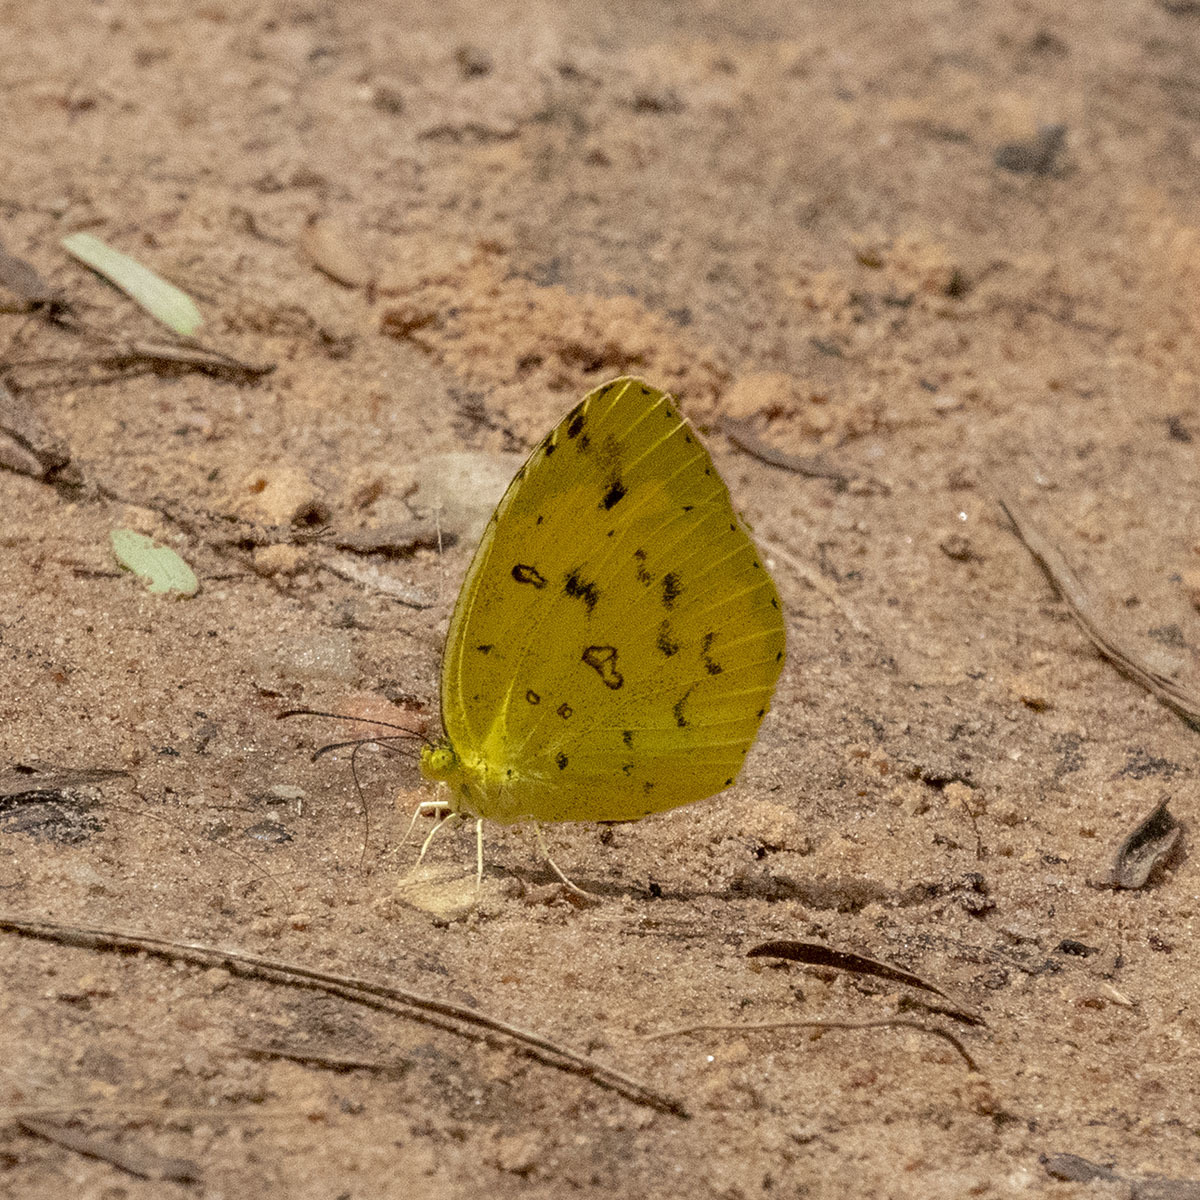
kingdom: Animalia
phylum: Arthropoda
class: Insecta
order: Lepidoptera
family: Pieridae
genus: Eurema
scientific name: Eurema hecabe
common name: Pale grass yellow
